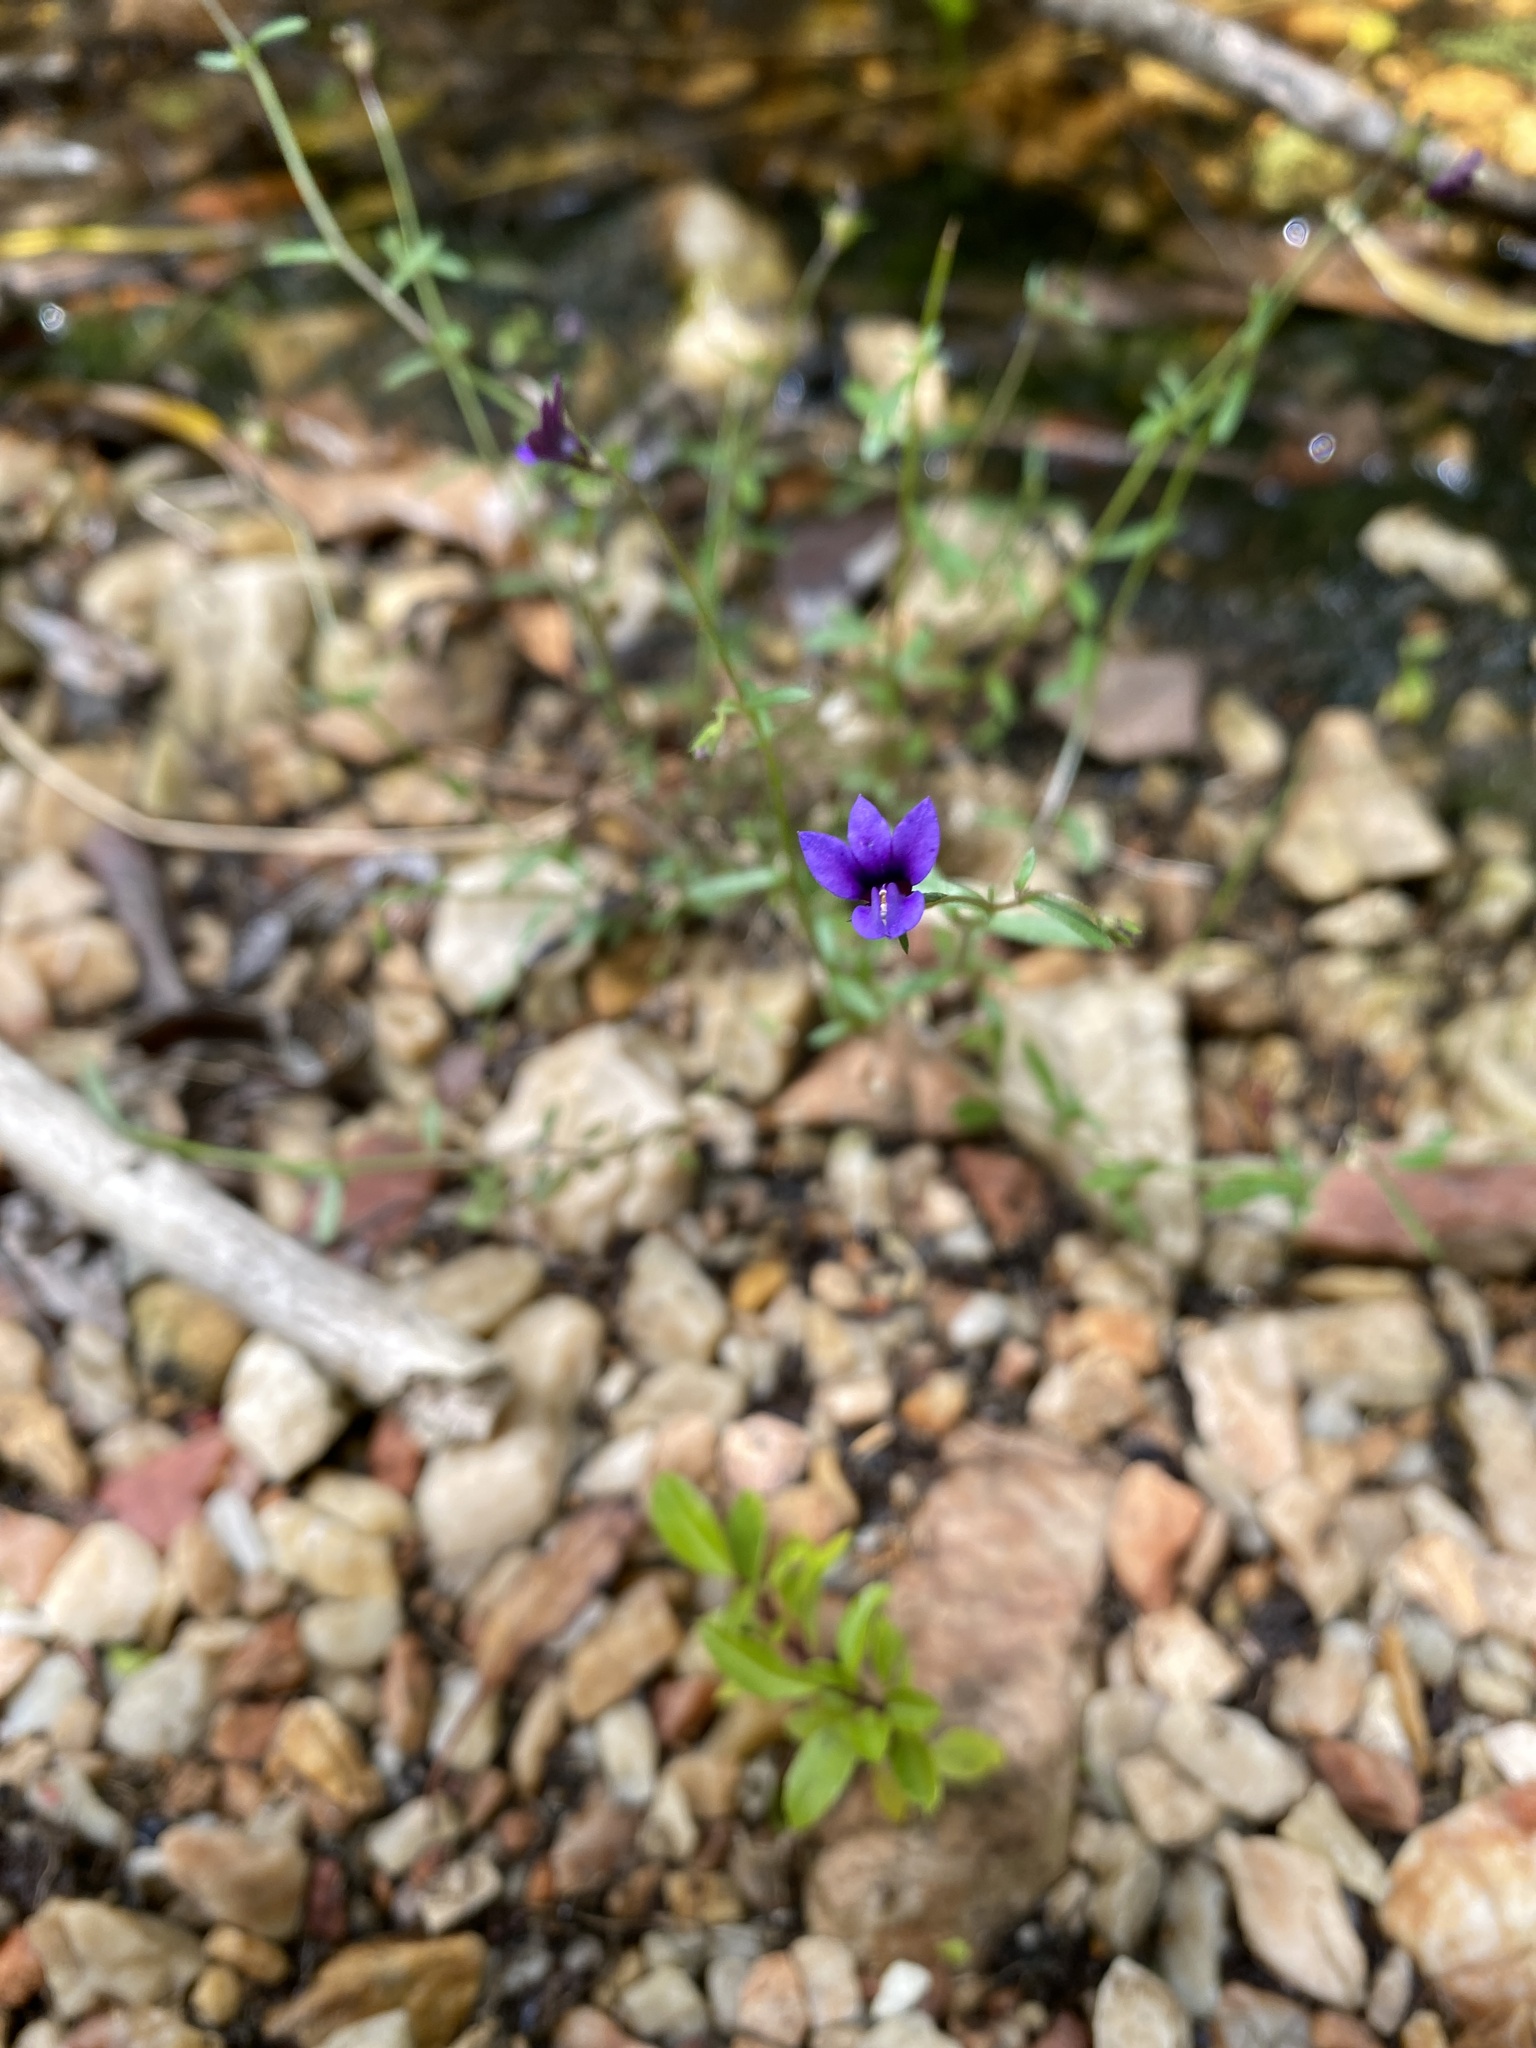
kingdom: Plantae
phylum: Tracheophyta
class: Magnoliopsida
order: Asterales
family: Campanulaceae
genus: Monopsis
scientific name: Monopsis unidentata
